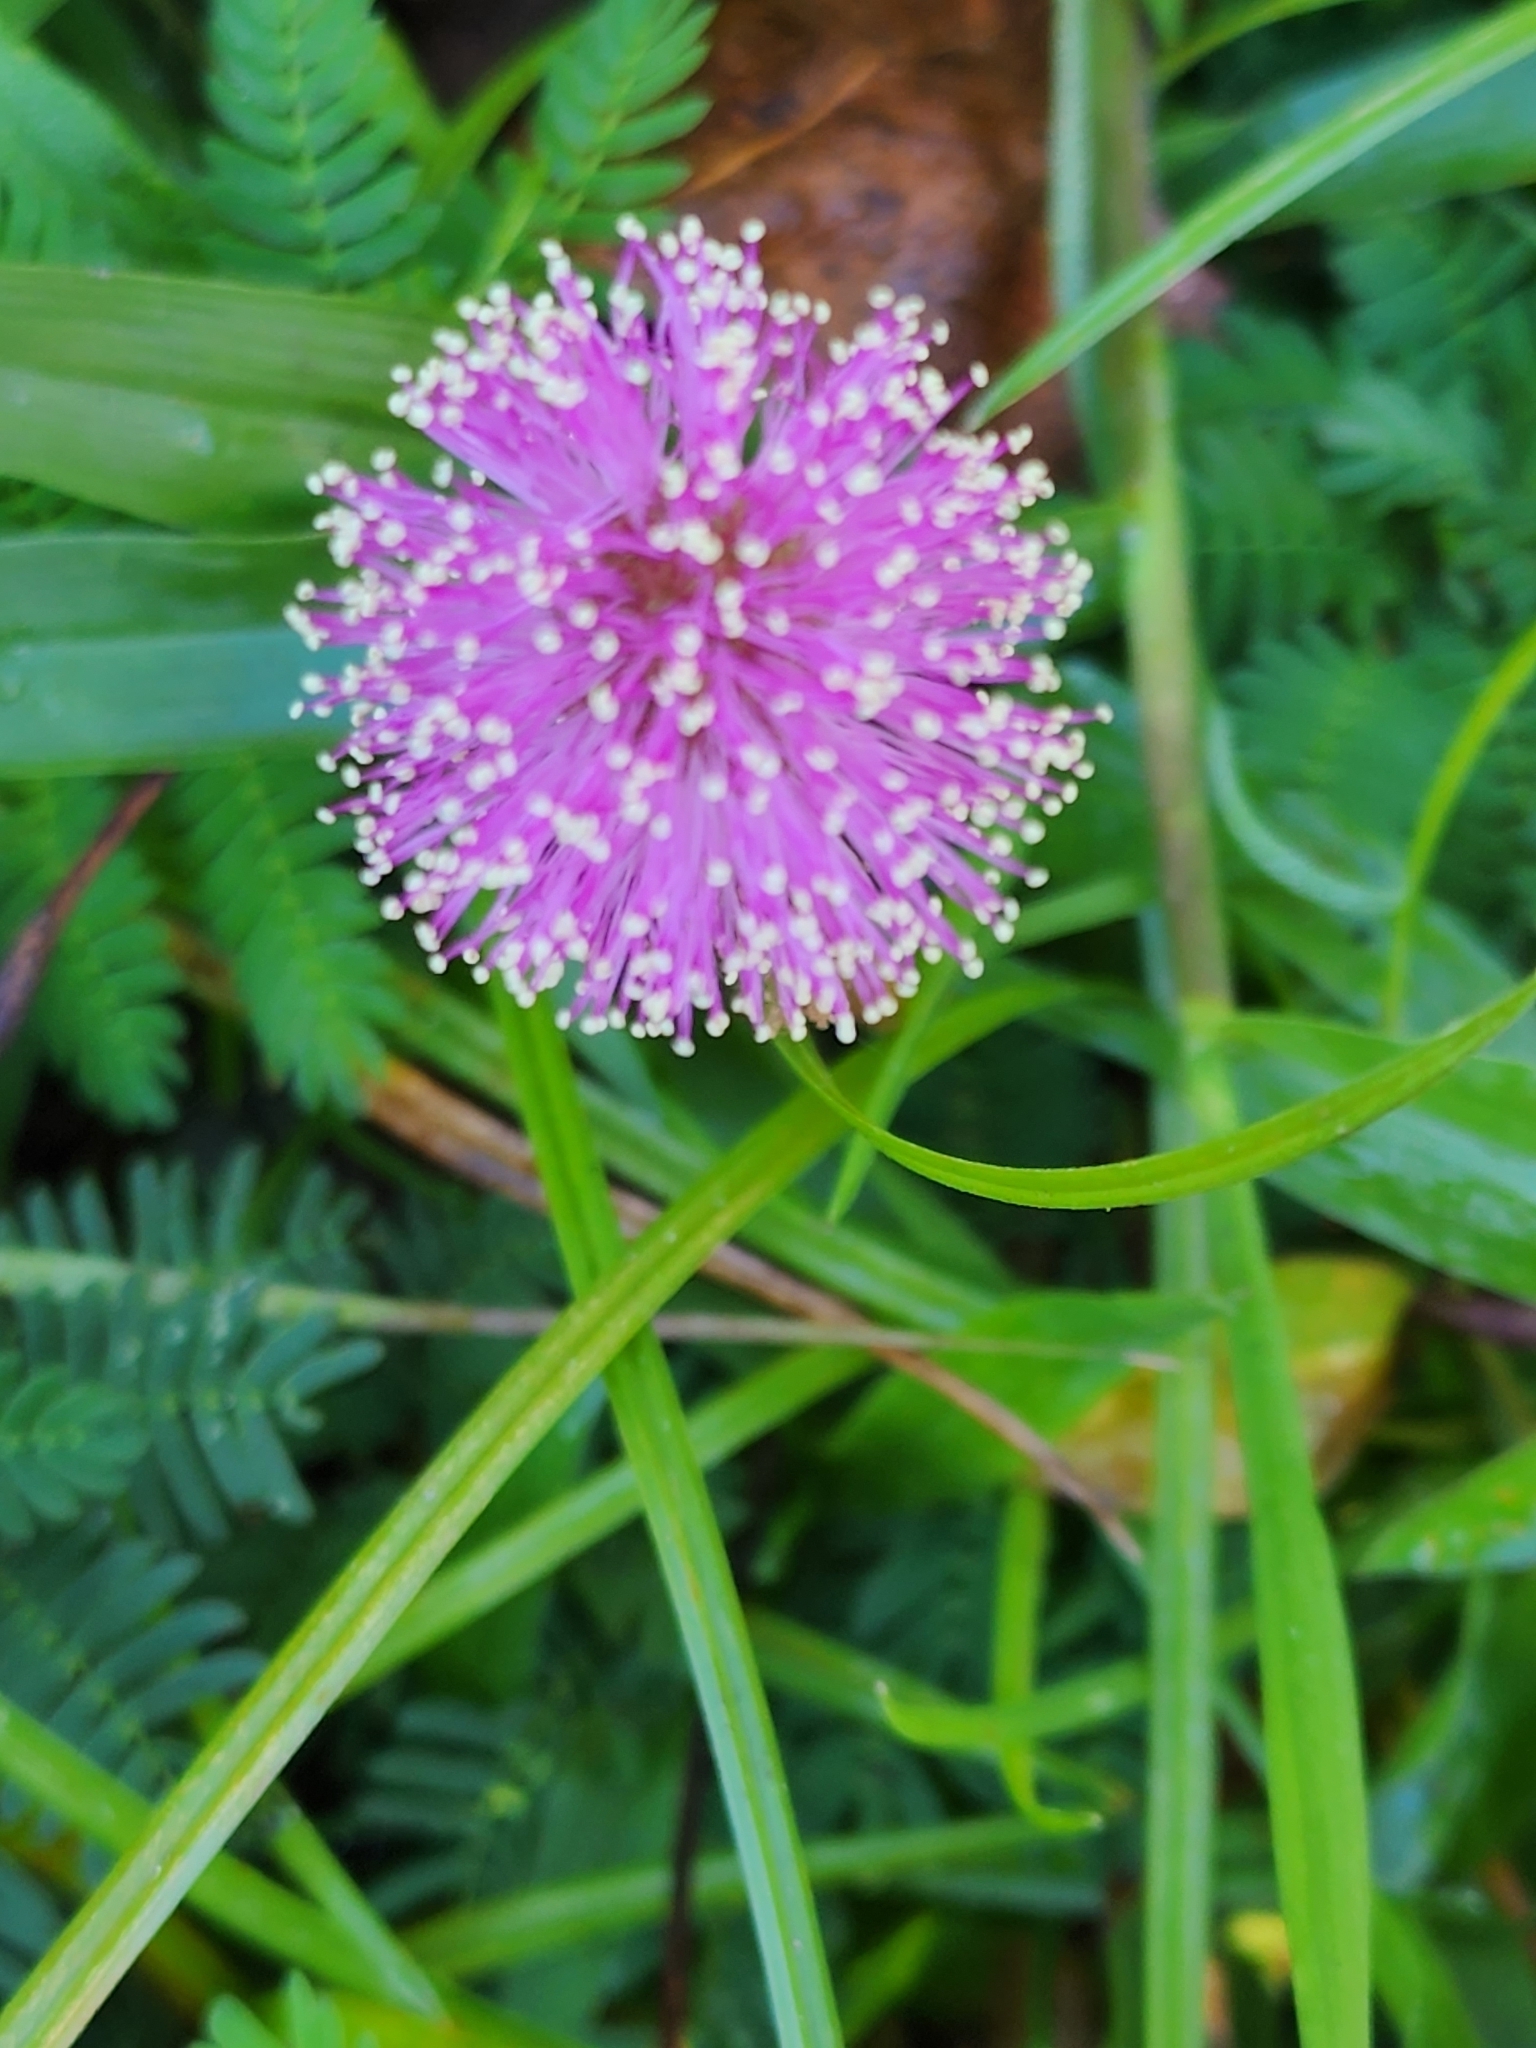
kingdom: Plantae
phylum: Tracheophyta
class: Magnoliopsida
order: Fabales
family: Fabaceae
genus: Mimosa
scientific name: Mimosa strigillosa
